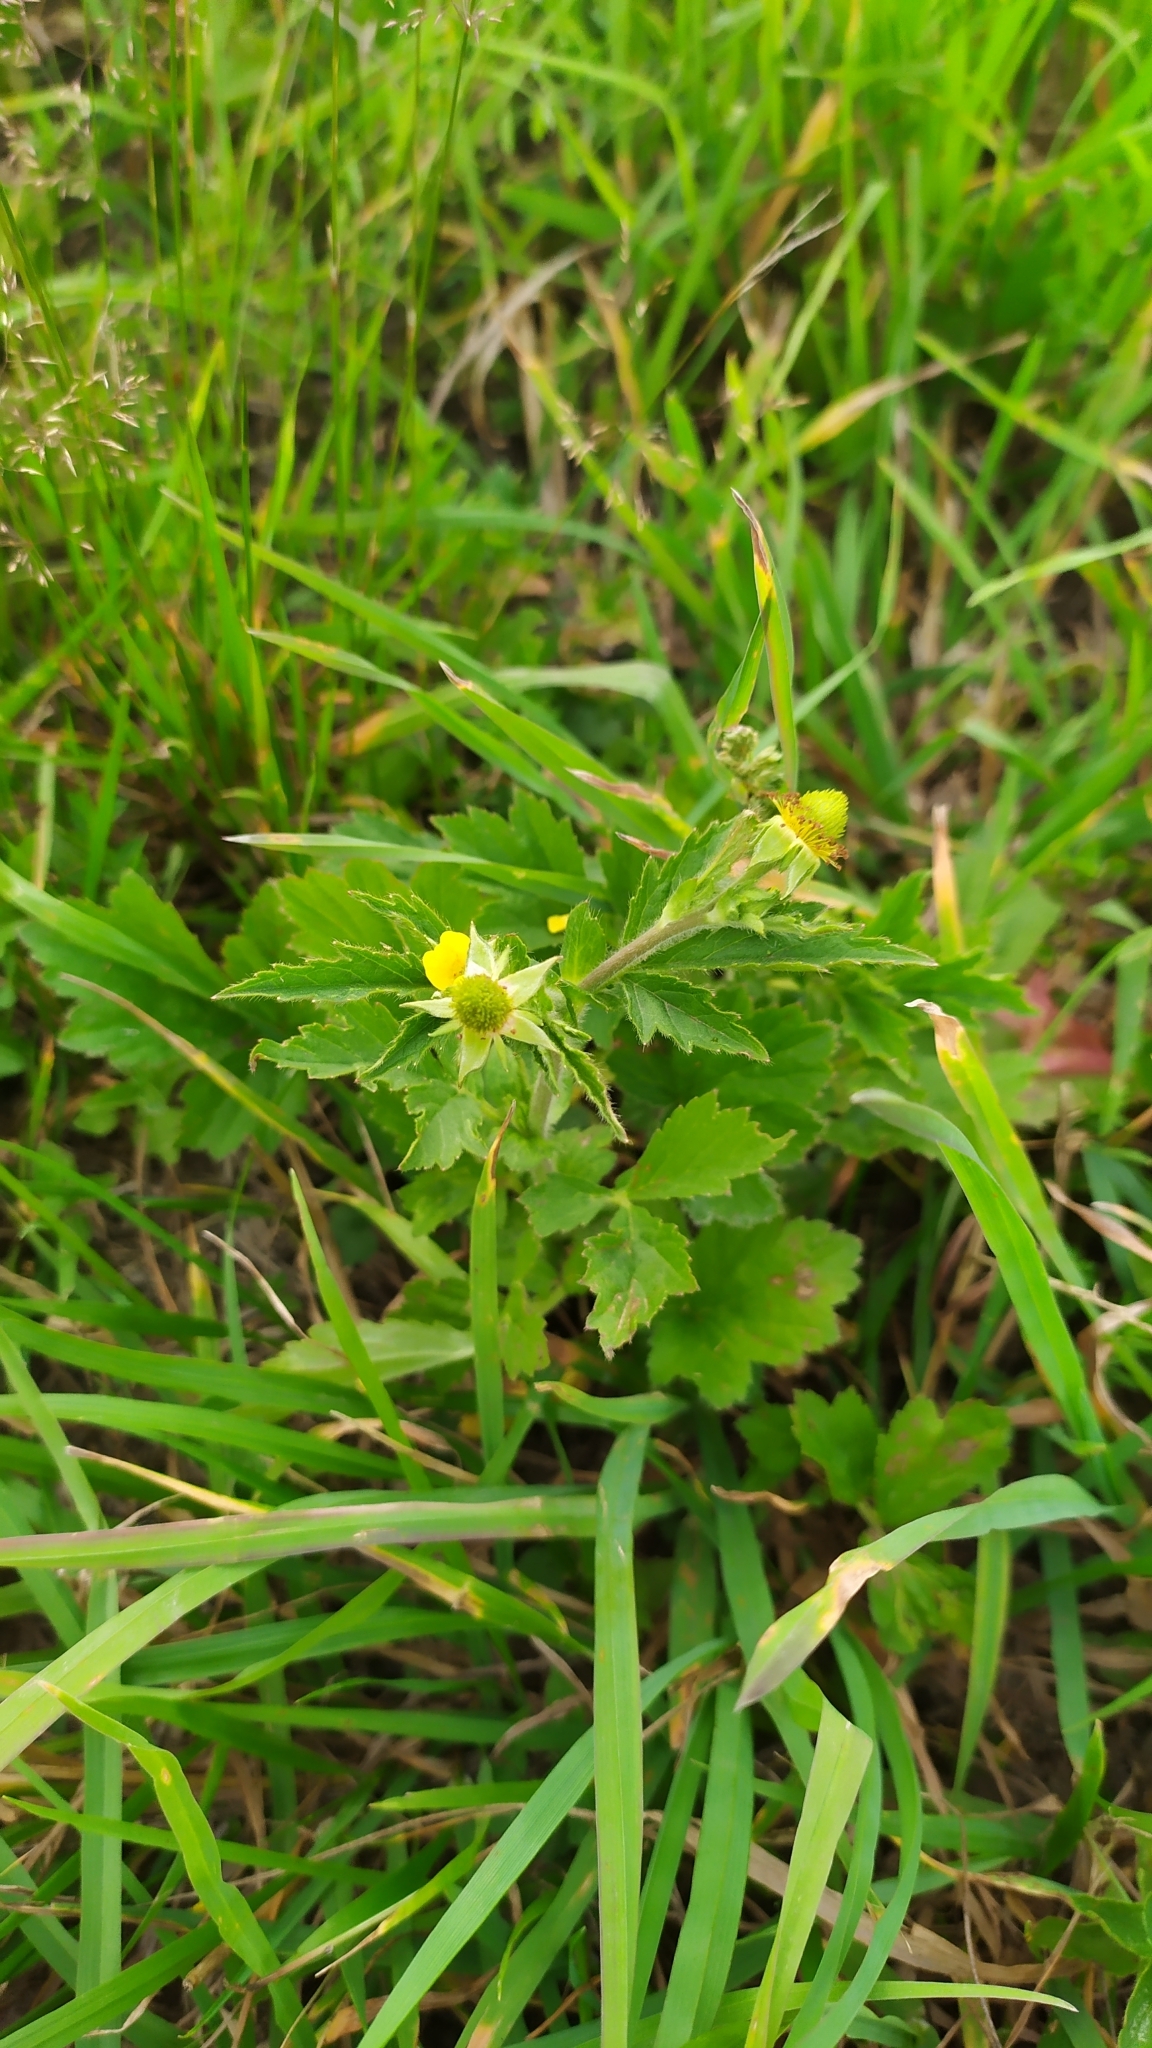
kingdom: Plantae
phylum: Tracheophyta
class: Magnoliopsida
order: Rosales
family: Rosaceae
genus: Geum
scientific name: Geum aleppicum
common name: Yellow avens
